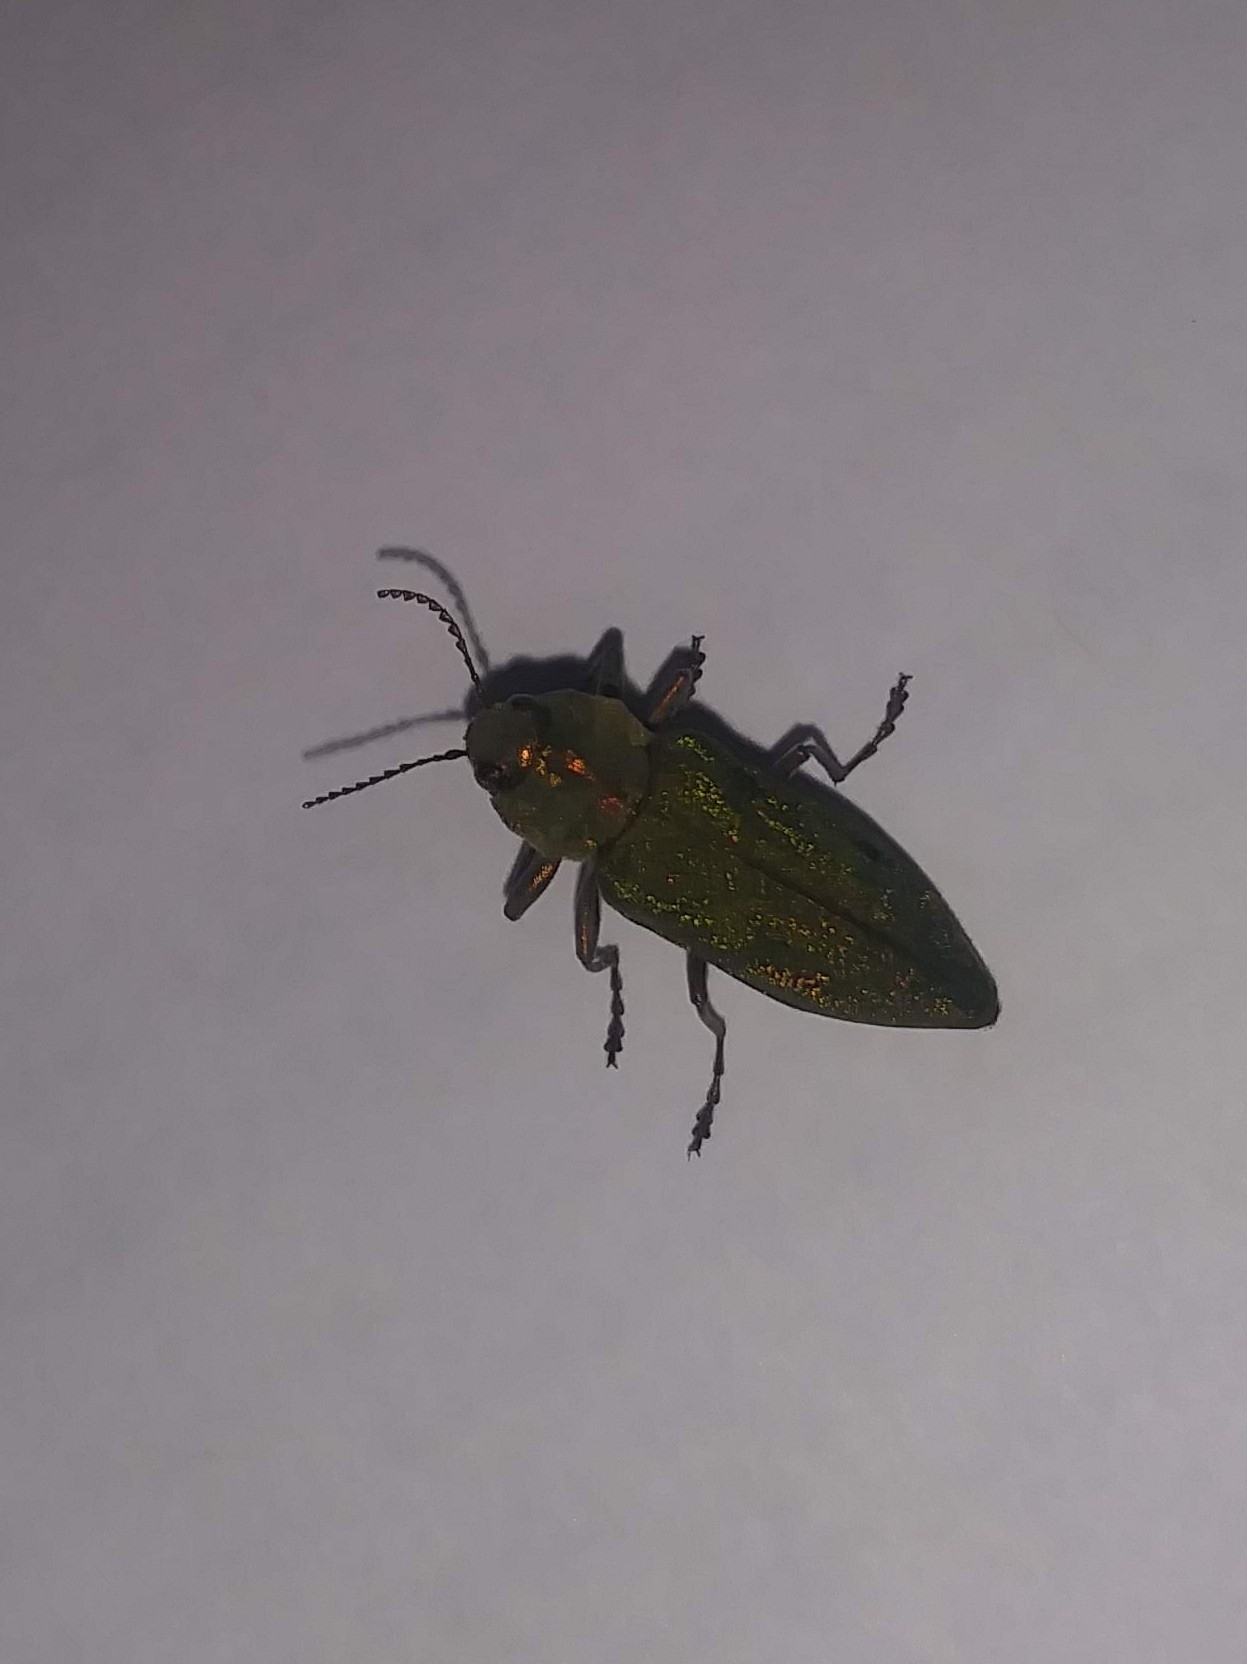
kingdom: Animalia
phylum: Arthropoda
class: Insecta
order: Coleoptera
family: Buprestidae
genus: Trachykele
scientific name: Trachykele blondeli
